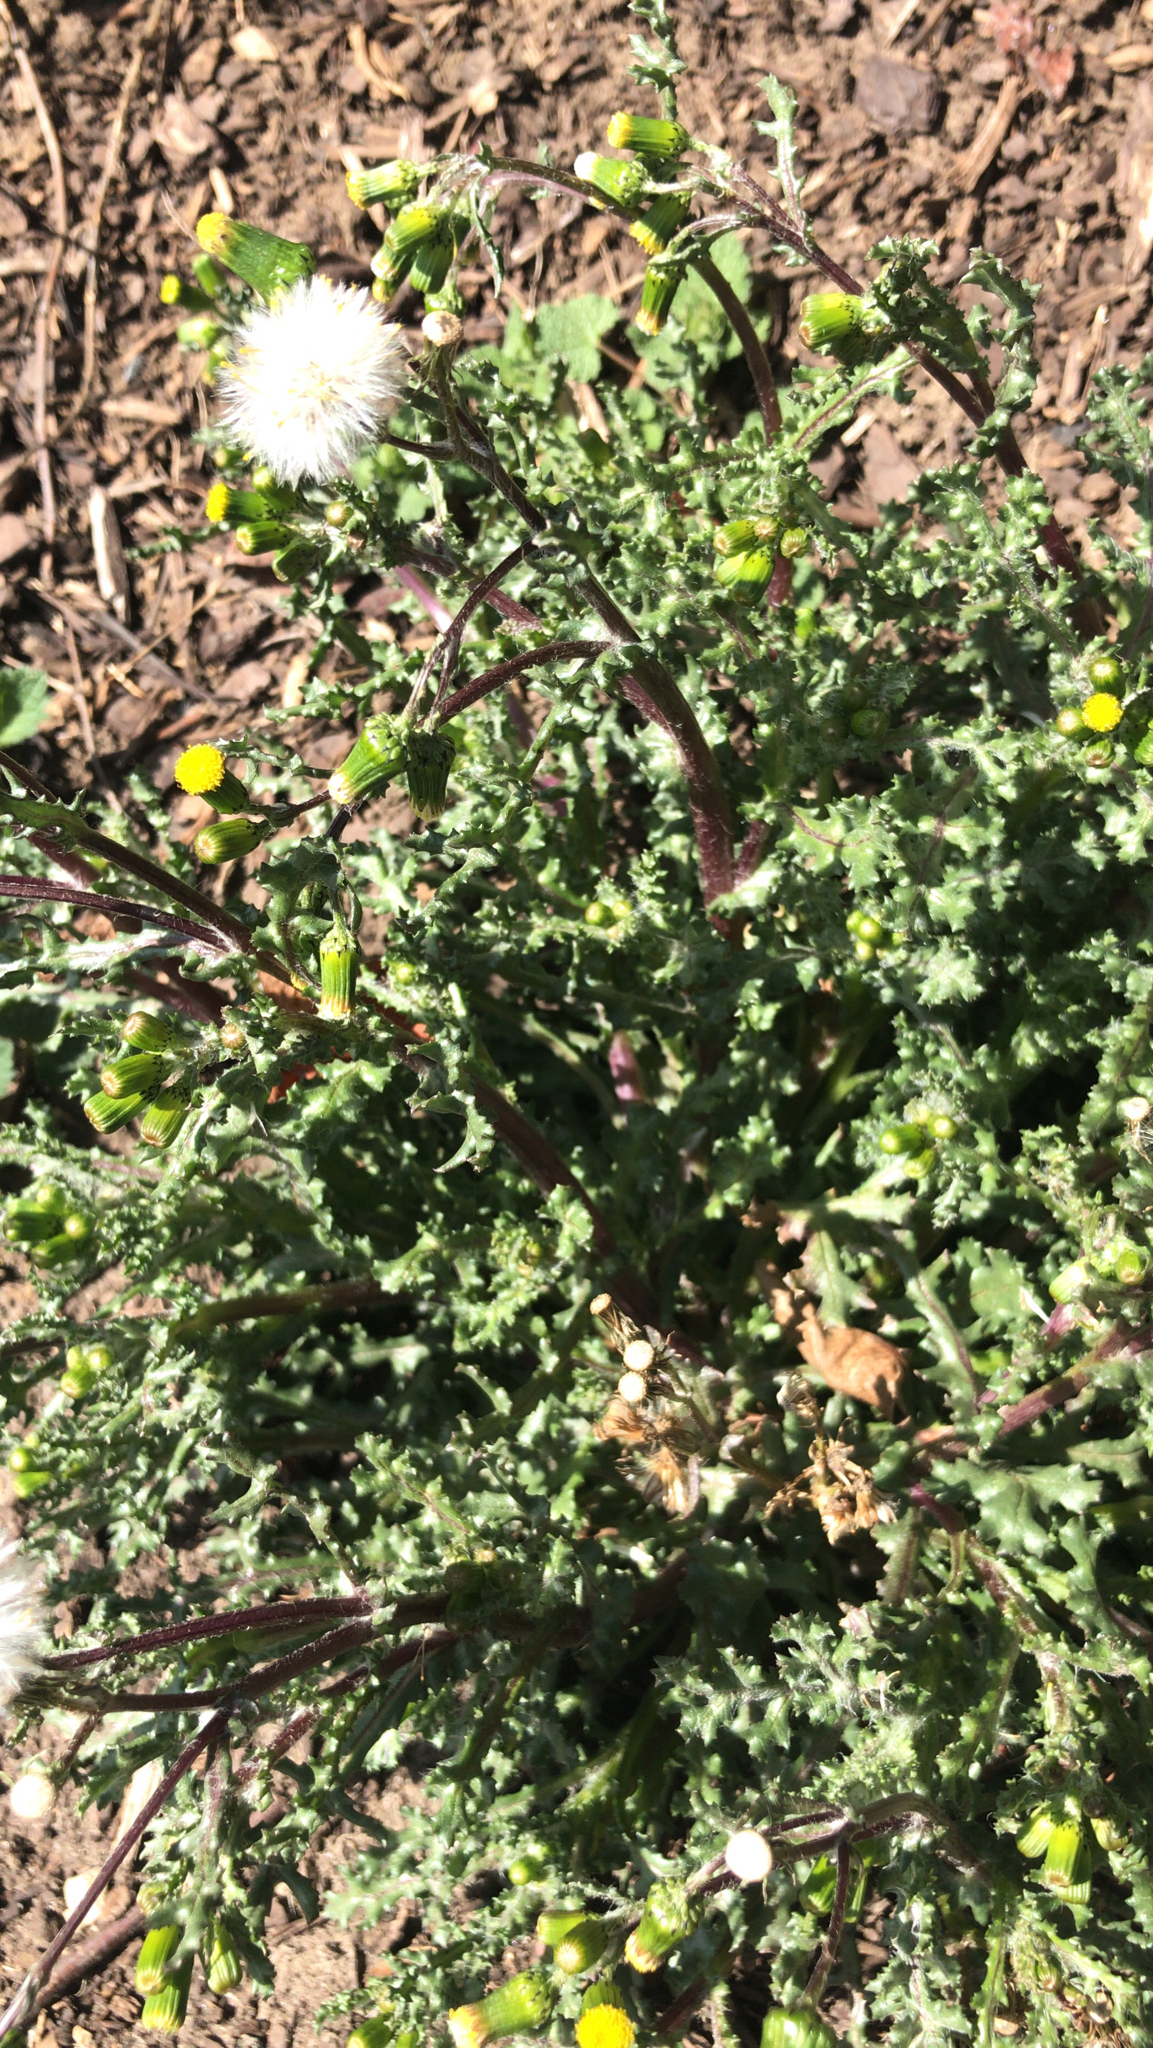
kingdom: Plantae
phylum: Tracheophyta
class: Magnoliopsida
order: Asterales
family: Asteraceae
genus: Senecio
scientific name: Senecio vulgaris
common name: Old-man-in-the-spring
